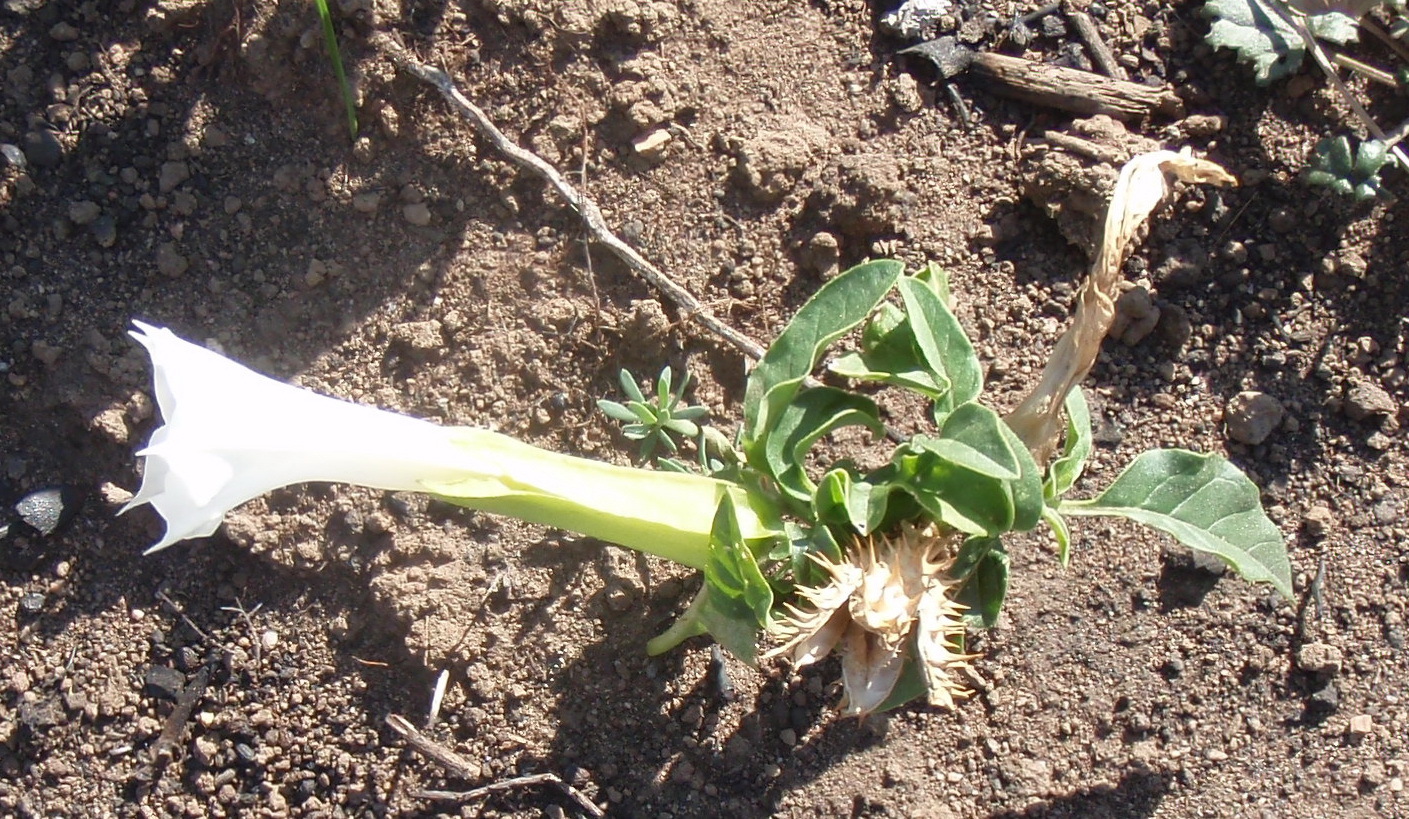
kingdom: Plantae
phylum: Tracheophyta
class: Magnoliopsida
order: Solanales
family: Solanaceae
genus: Datura
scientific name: Datura stramonium
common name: Thorn-apple
